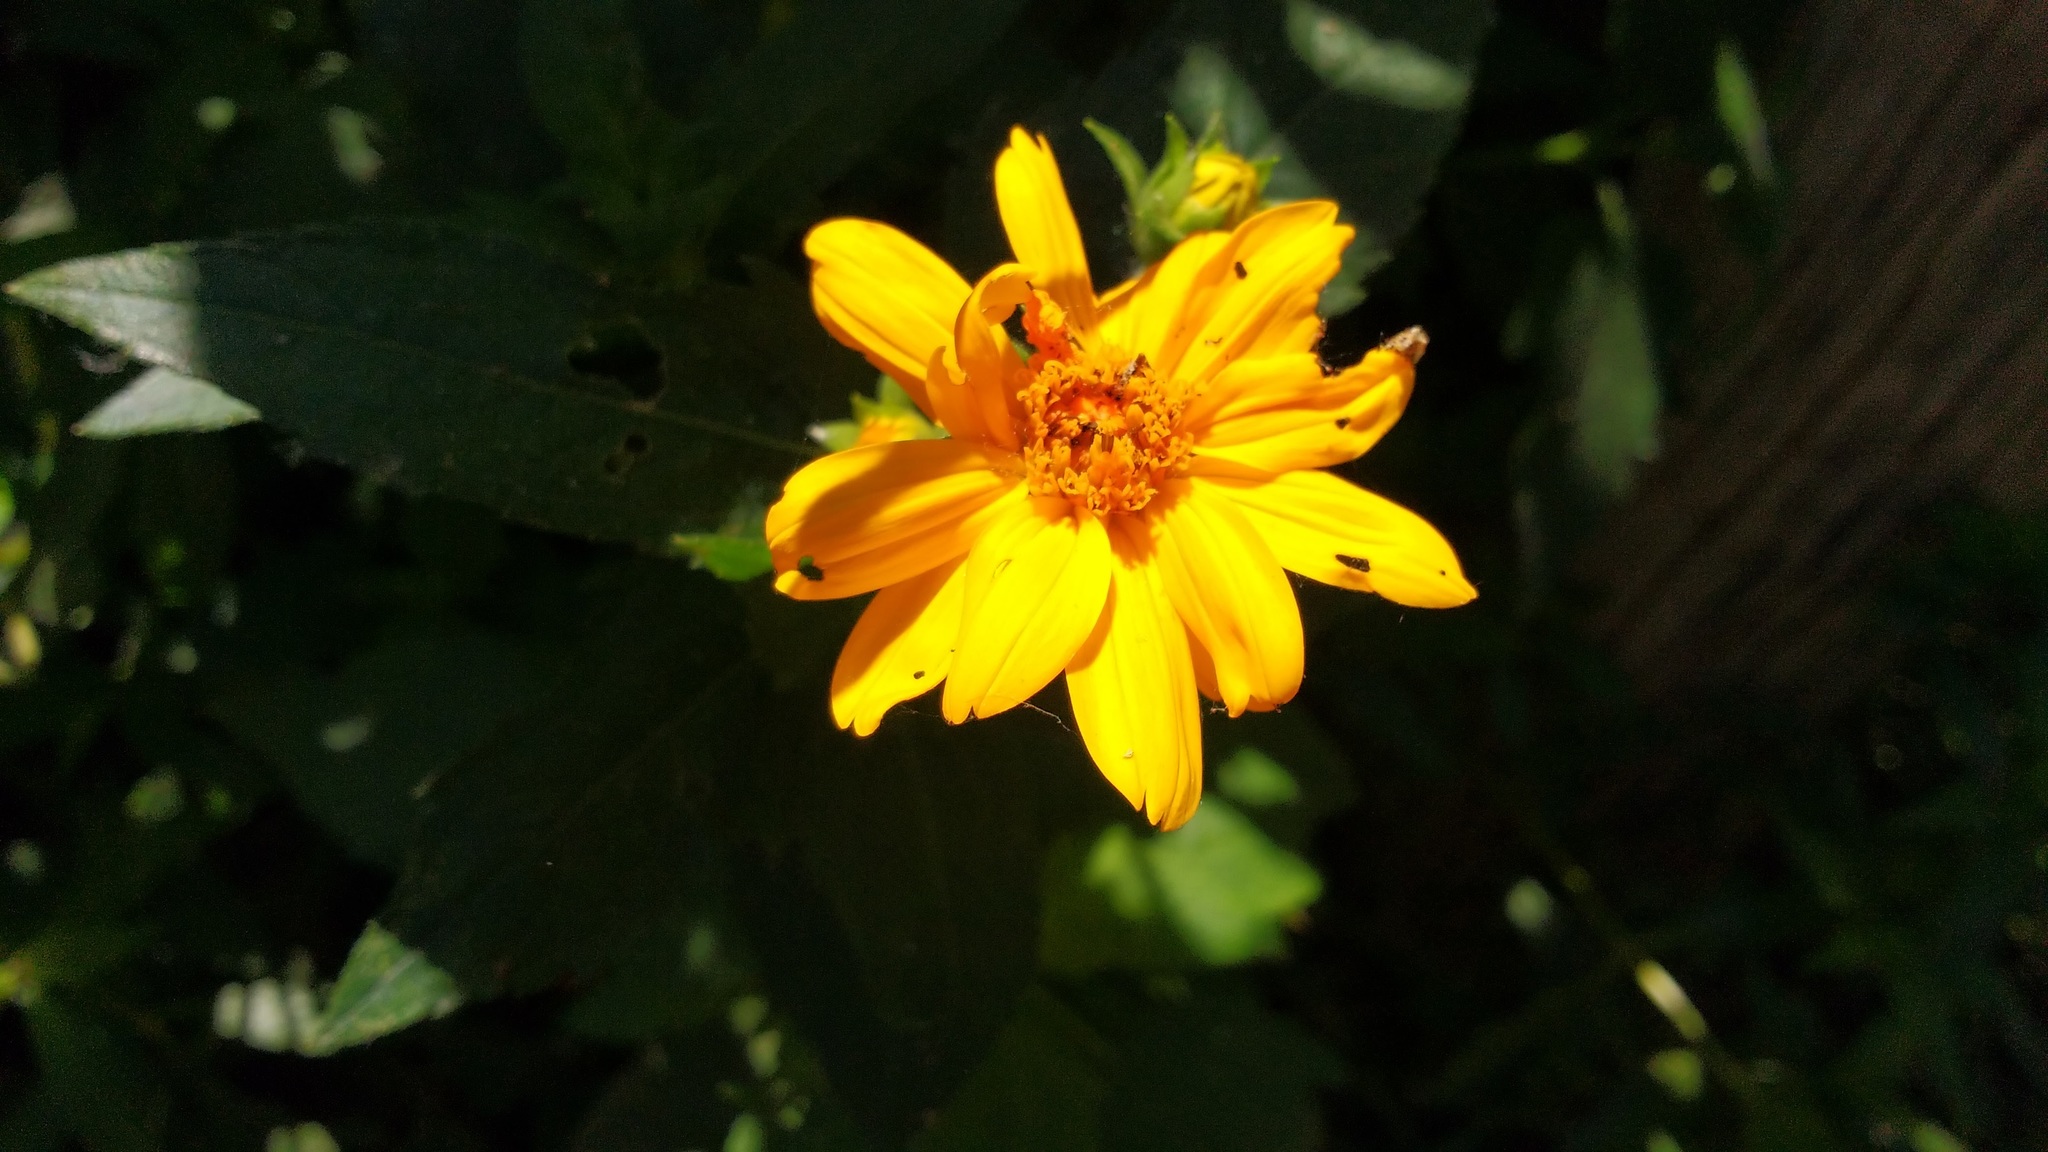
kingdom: Plantae
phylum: Tracheophyta
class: Magnoliopsida
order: Asterales
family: Asteraceae
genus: Wedelia
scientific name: Wedelia silphioides
